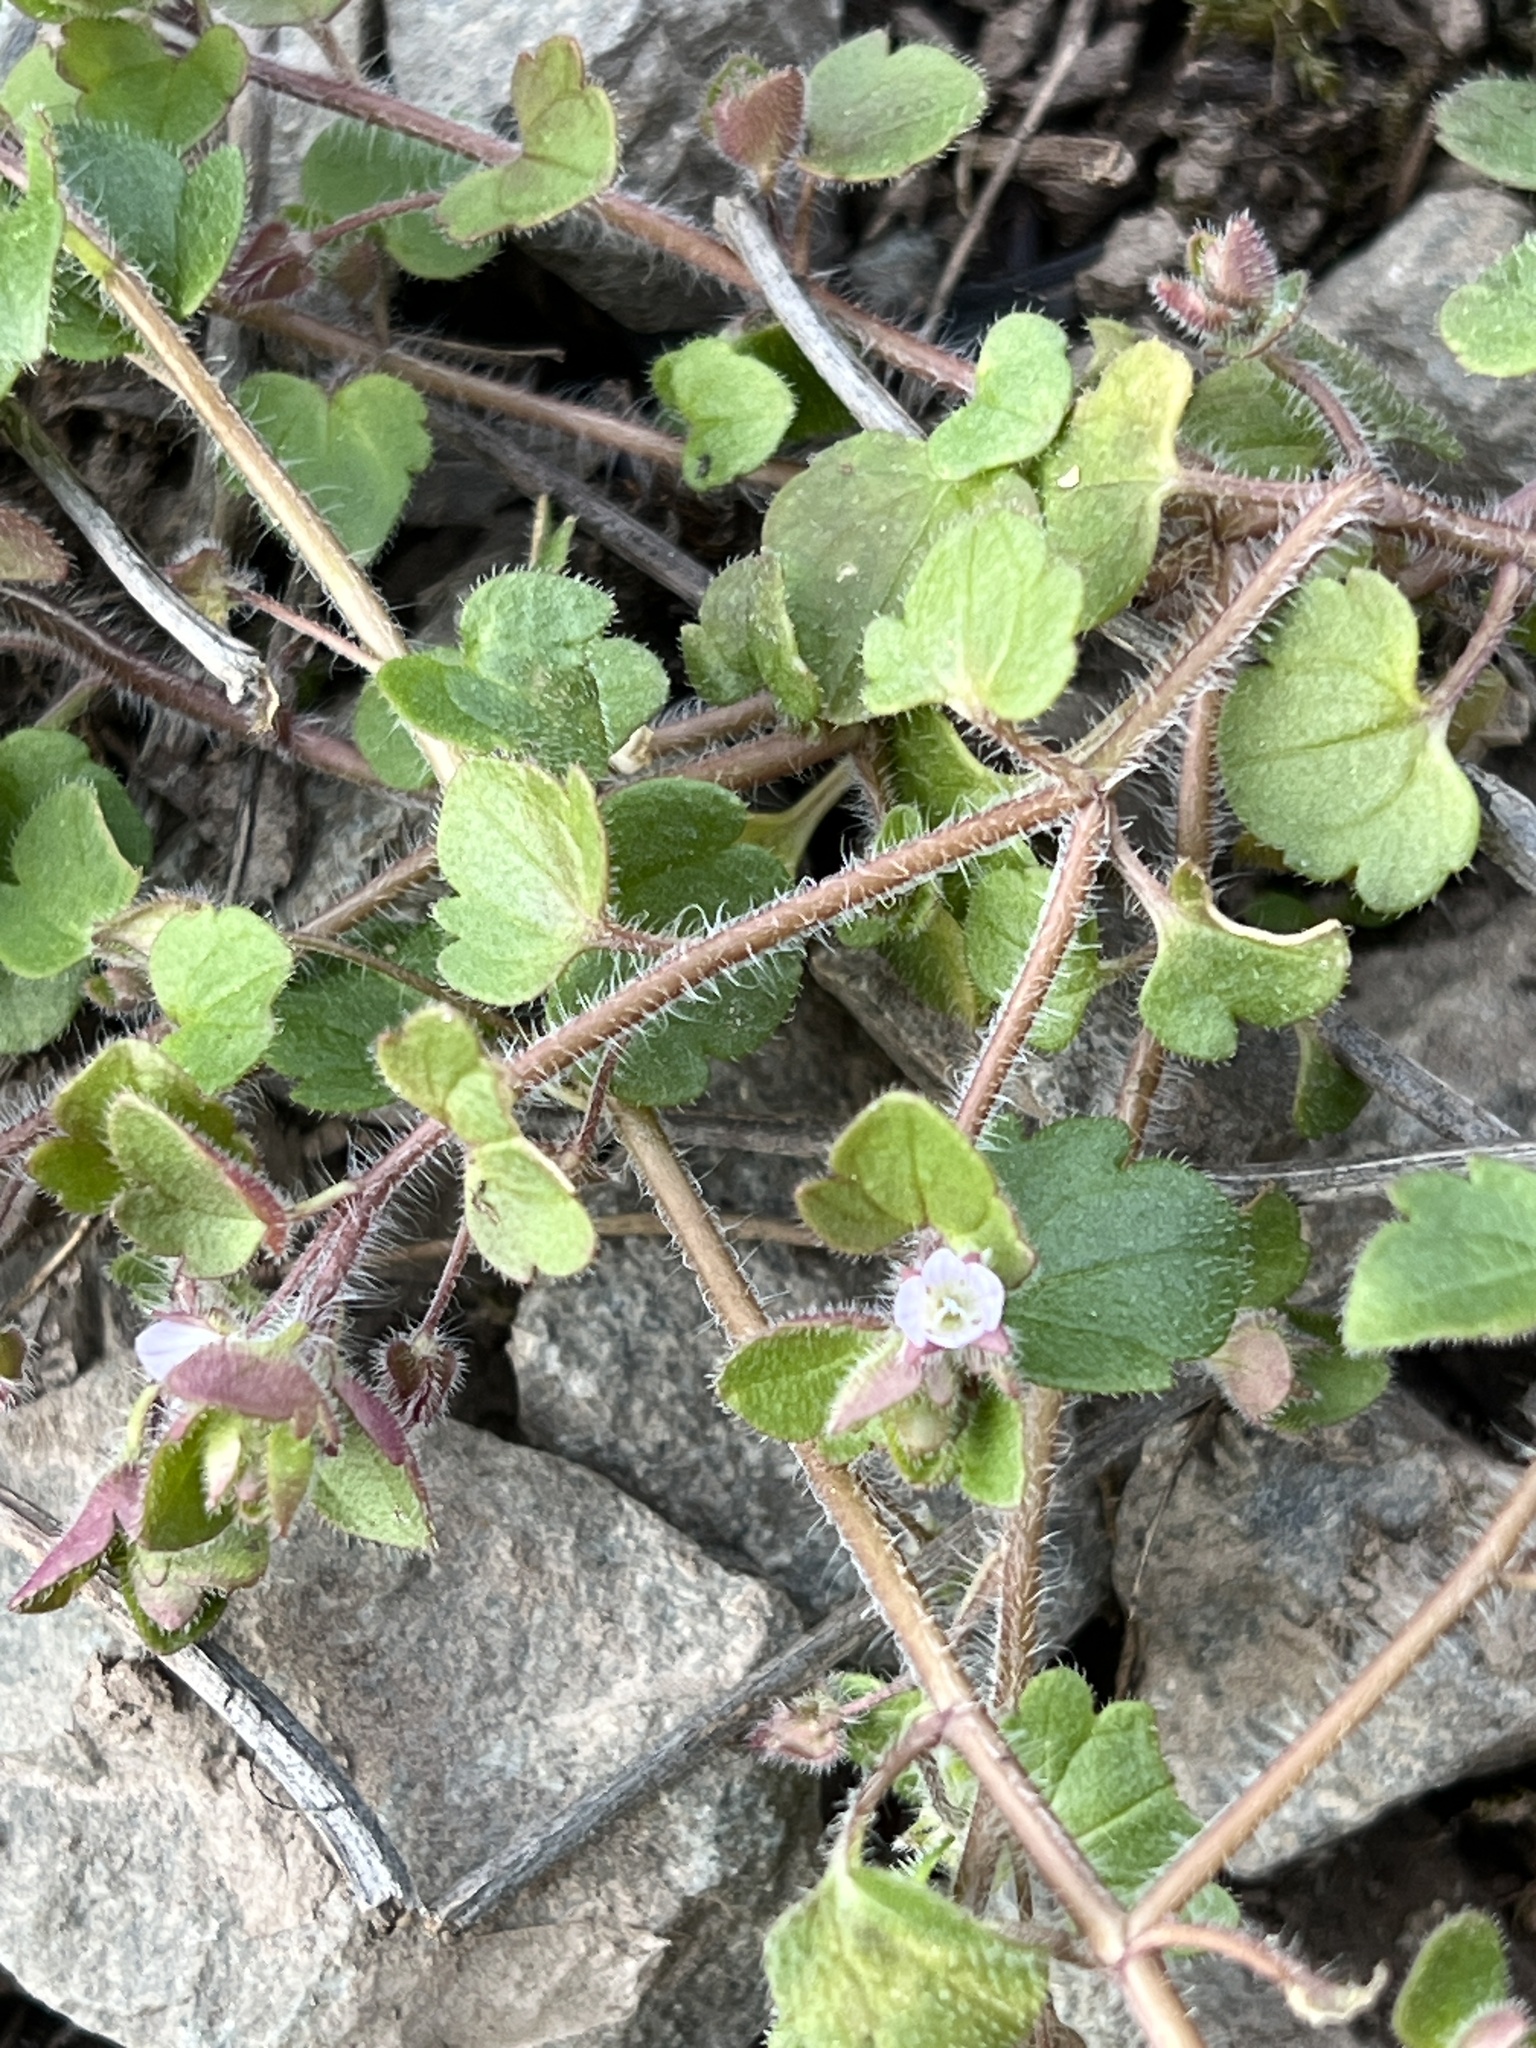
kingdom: Plantae
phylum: Tracheophyta
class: Magnoliopsida
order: Lamiales
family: Plantaginaceae
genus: Veronica
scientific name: Veronica sublobata
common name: False ivy-leaved speedwell
